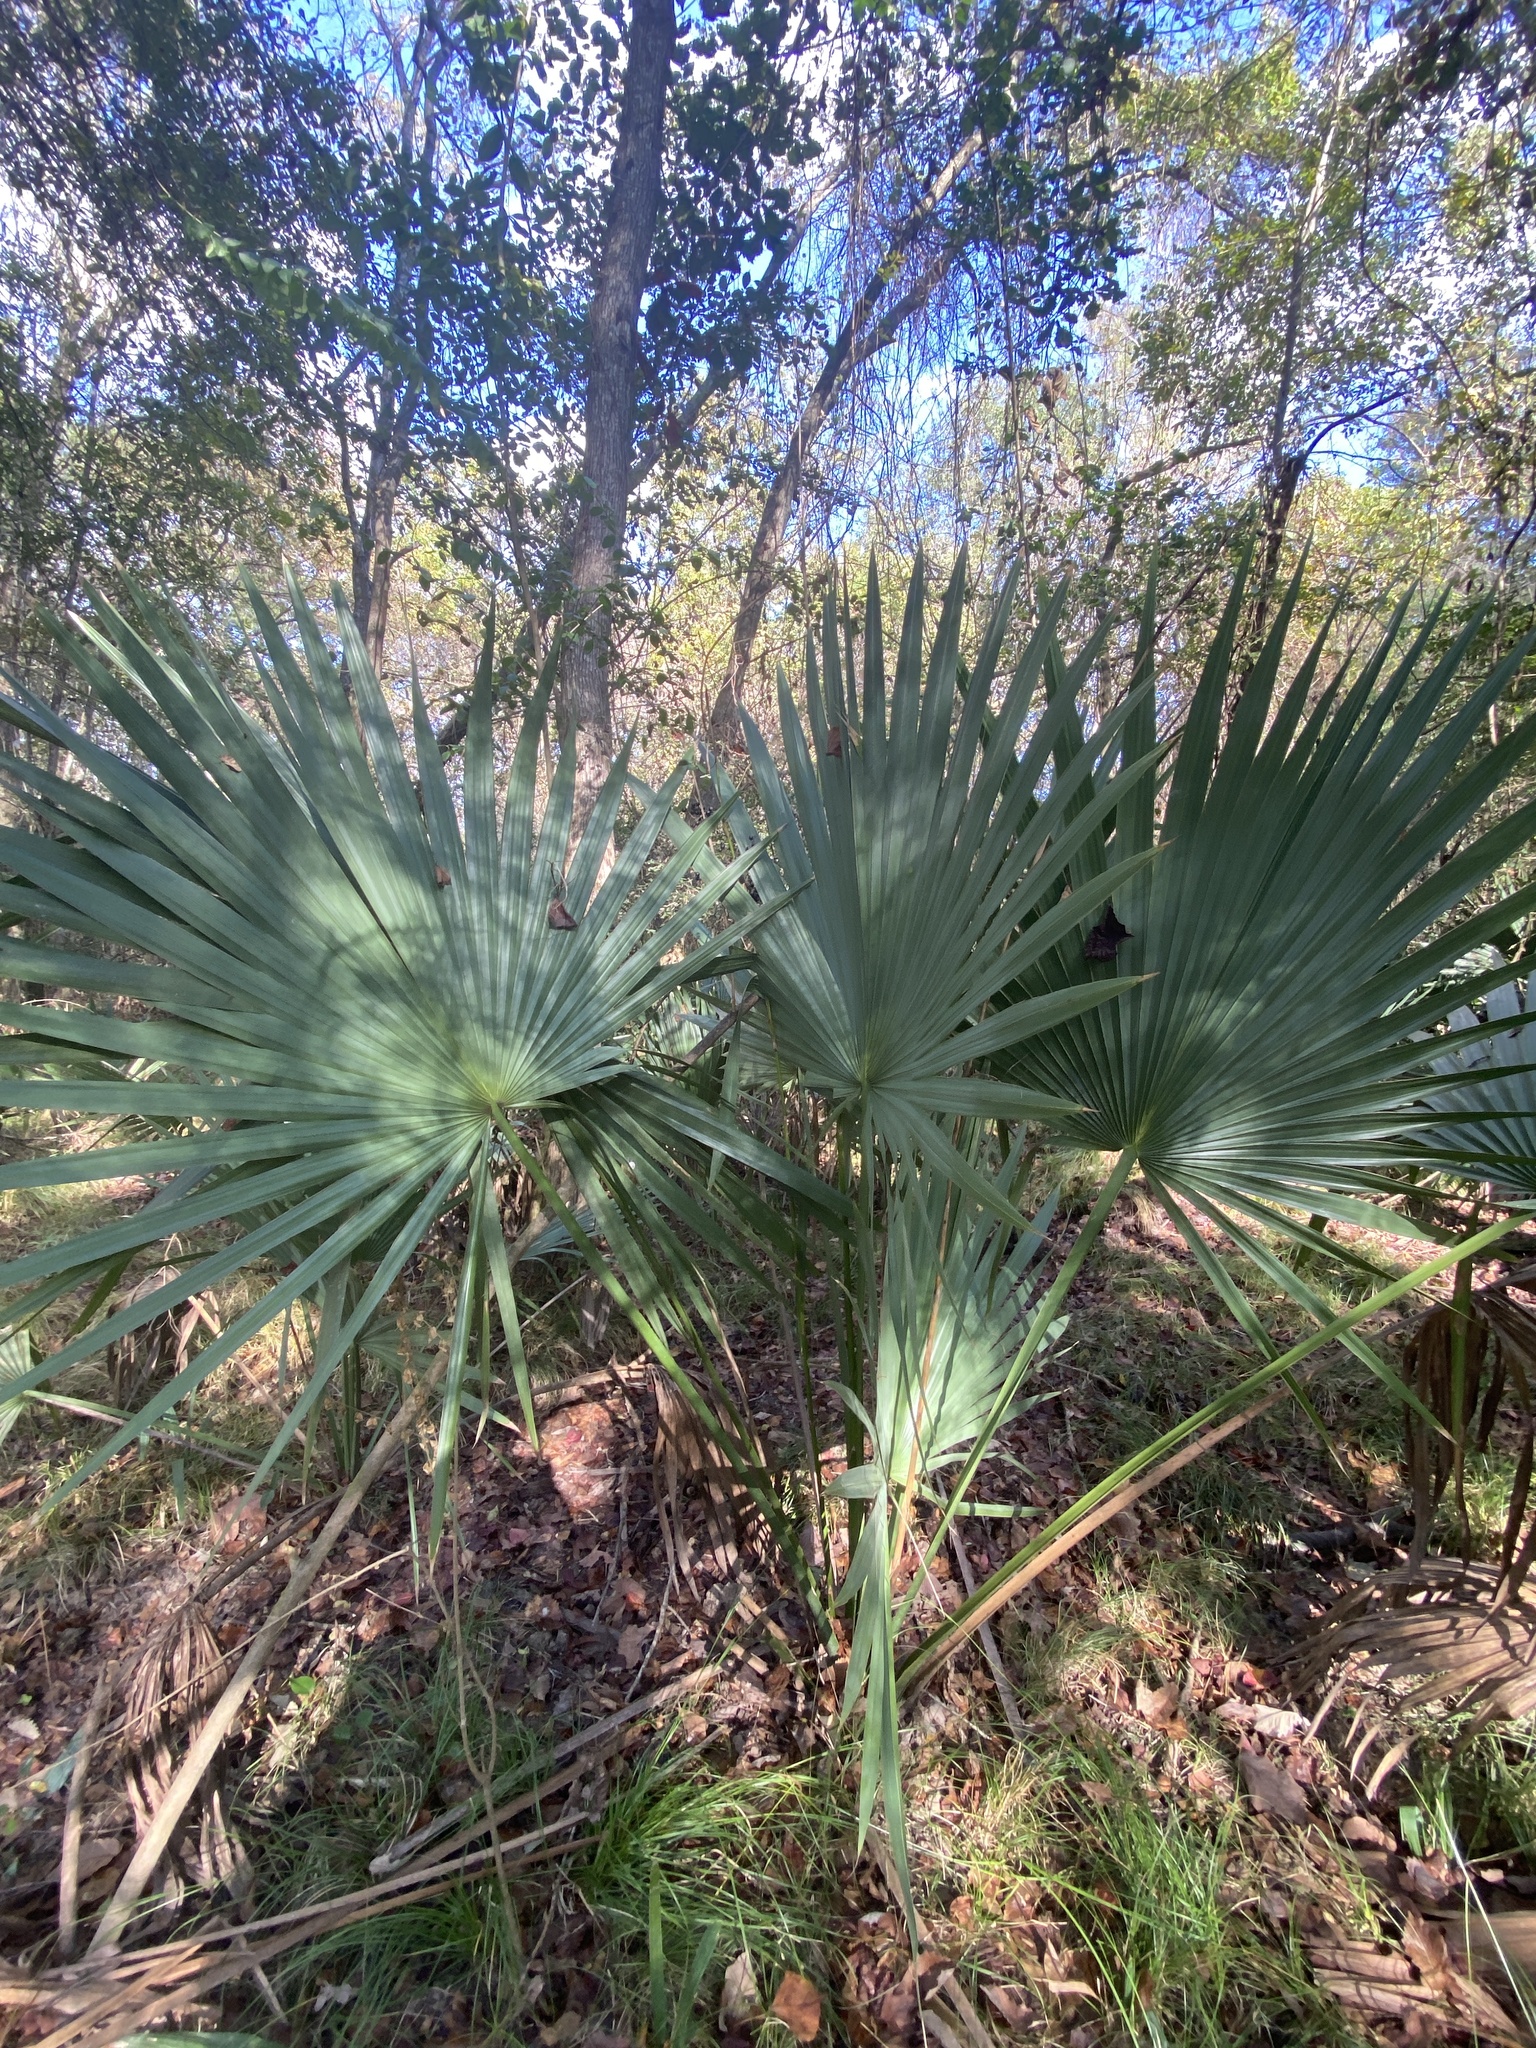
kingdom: Plantae
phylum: Tracheophyta
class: Liliopsida
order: Arecales
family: Arecaceae
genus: Sabal
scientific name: Sabal minor
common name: Dwarf palmetto
